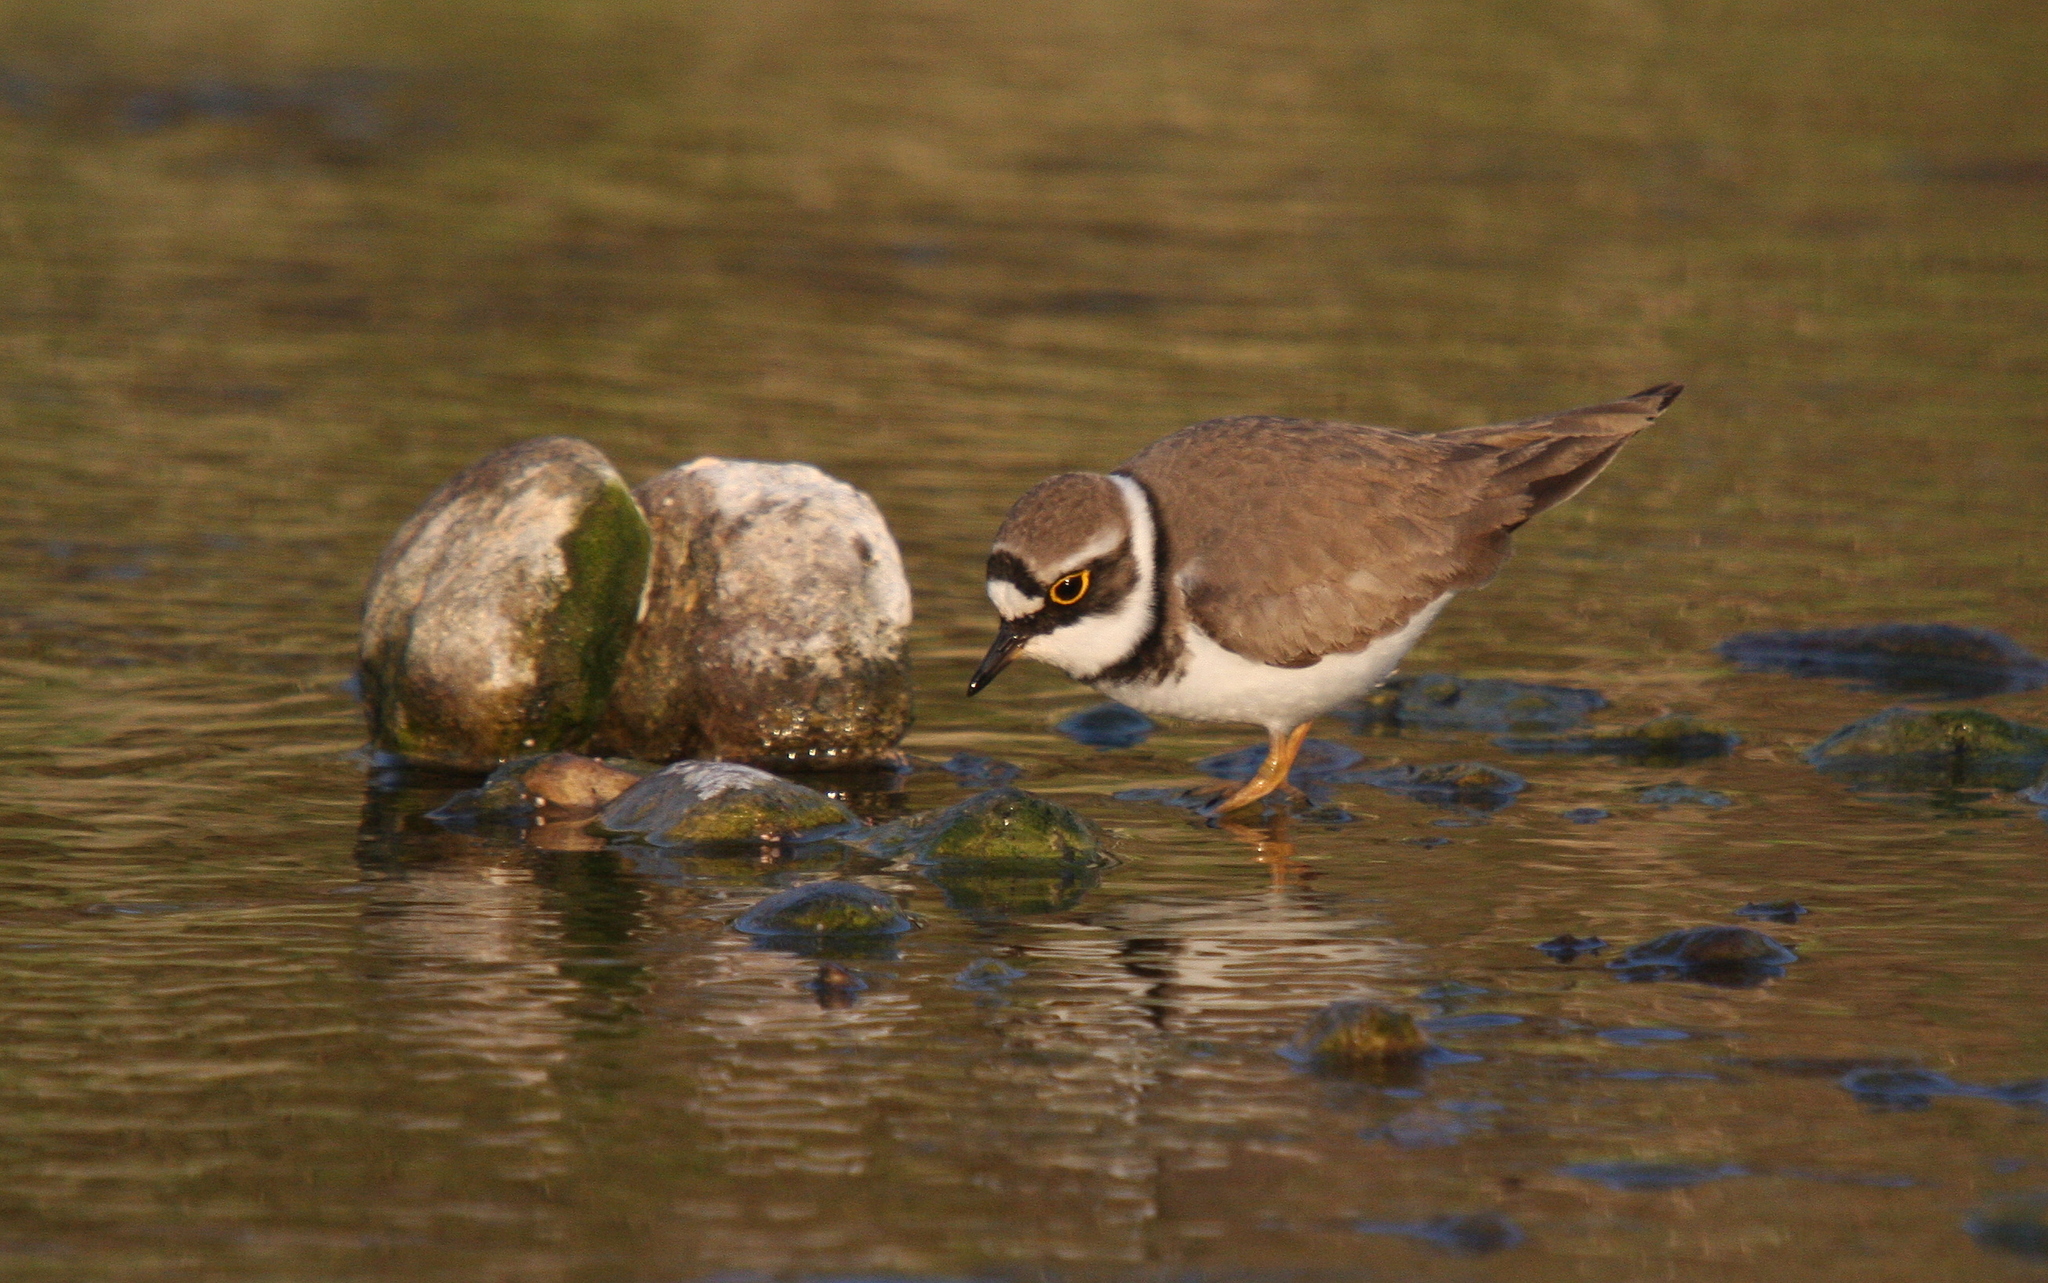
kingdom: Animalia
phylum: Chordata
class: Aves
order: Charadriiformes
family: Charadriidae
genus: Charadrius
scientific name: Charadrius dubius
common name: Little ringed plover
